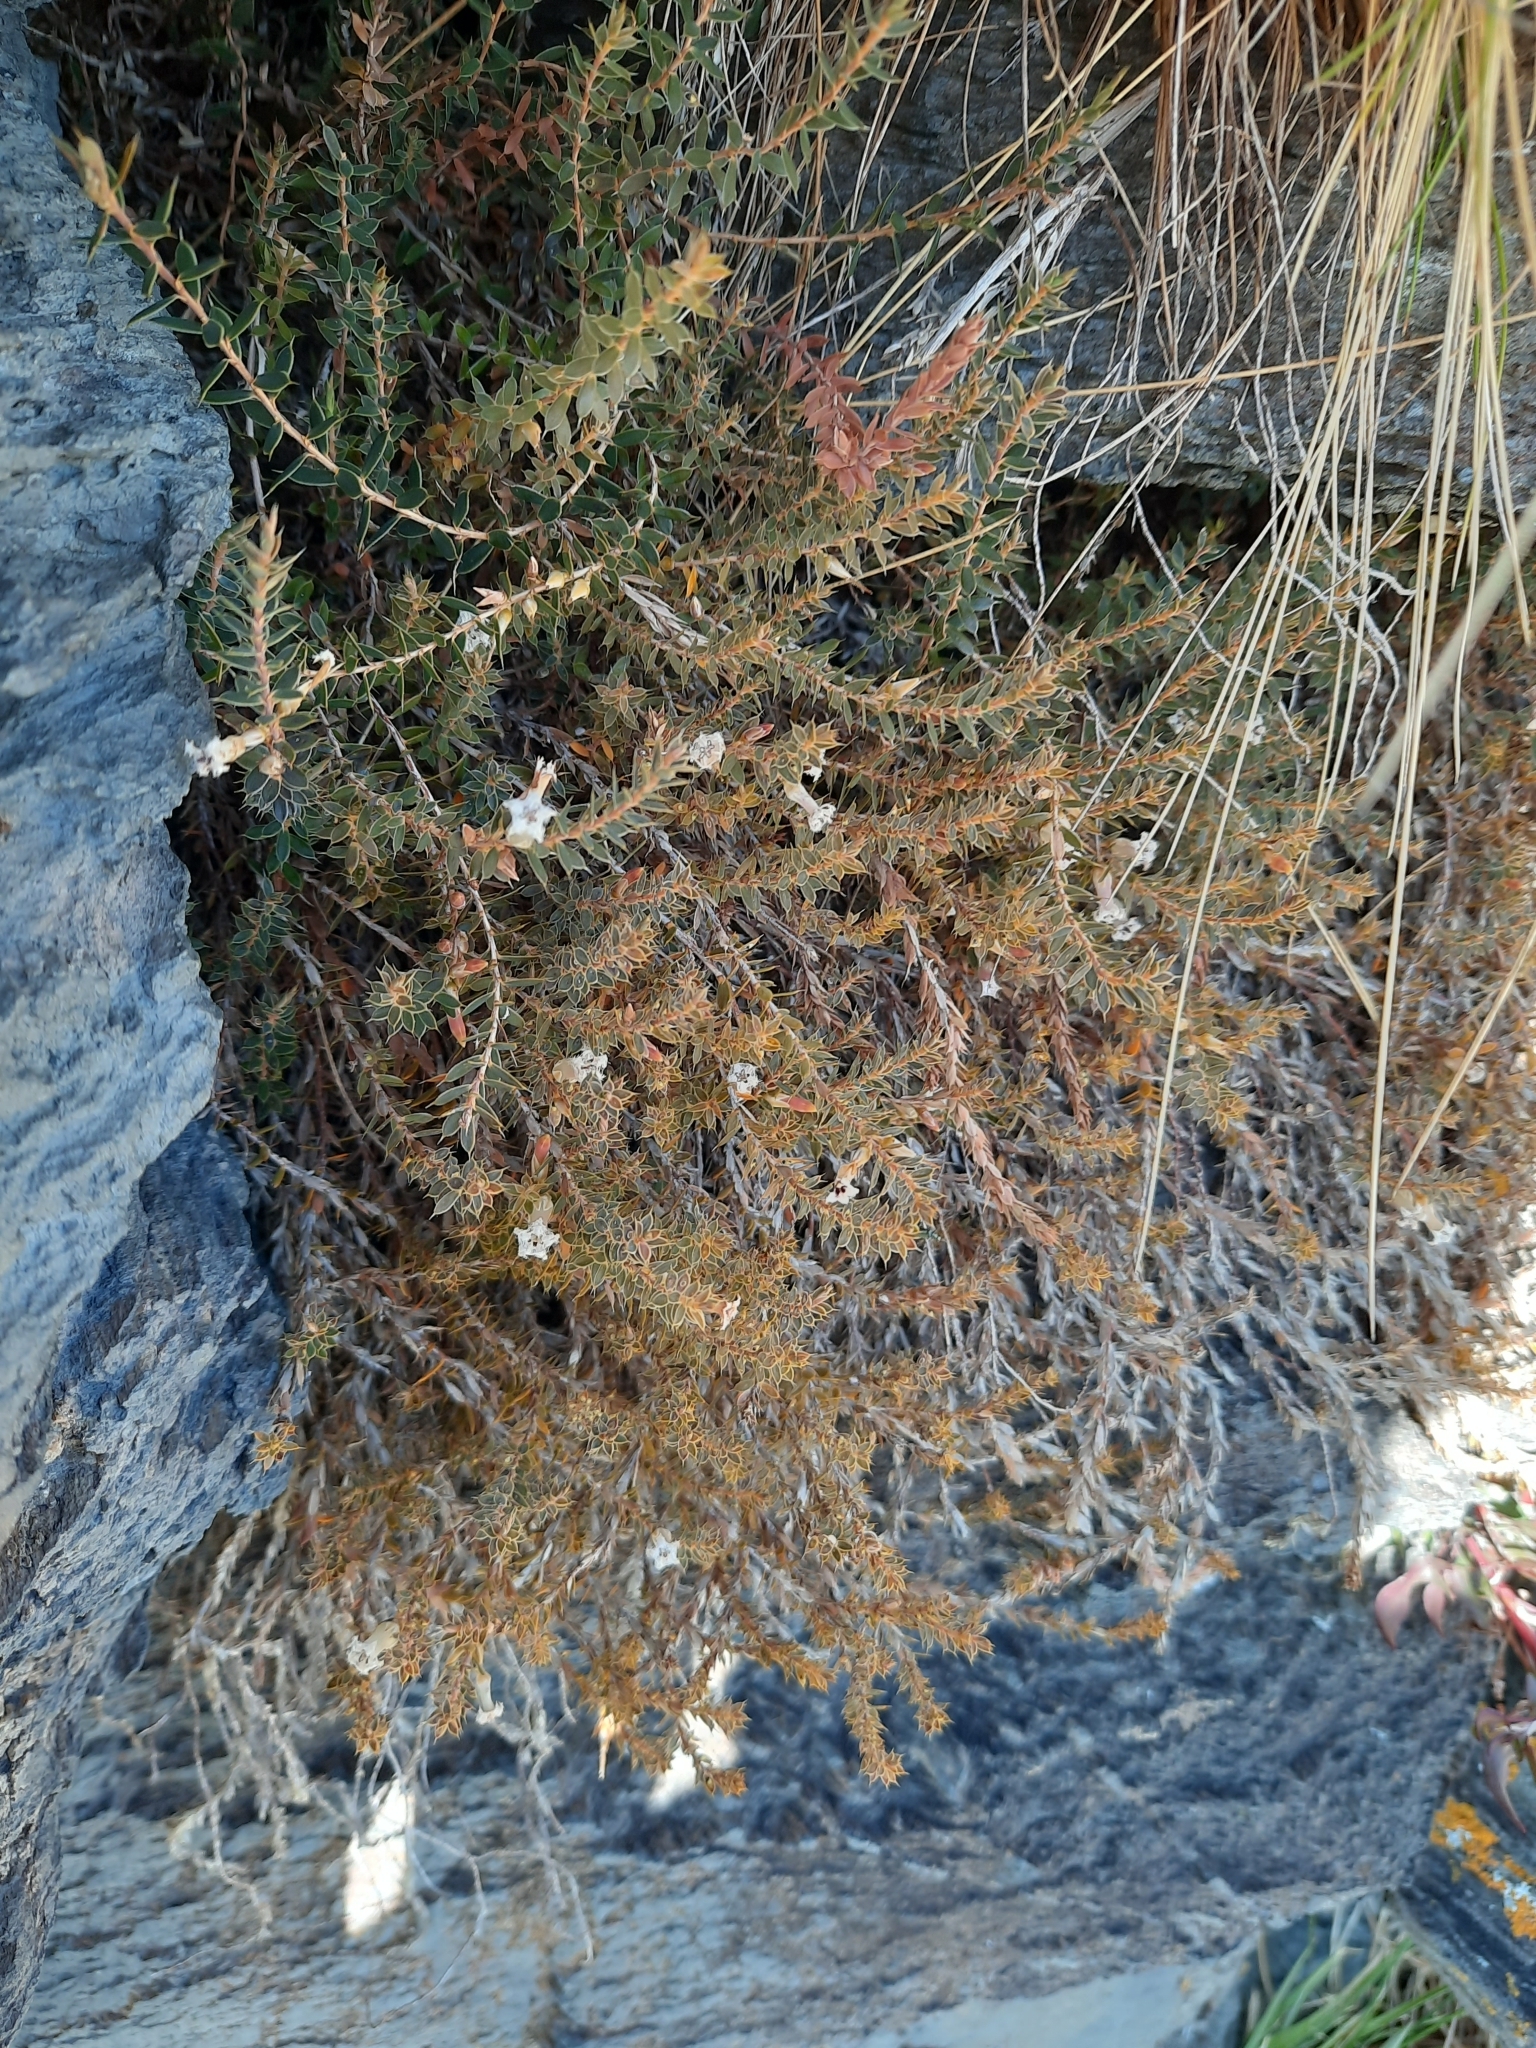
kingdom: Plantae
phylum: Tracheophyta
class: Magnoliopsida
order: Ericales
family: Ericaceae
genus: Styphelia
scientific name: Styphelia nesophila
